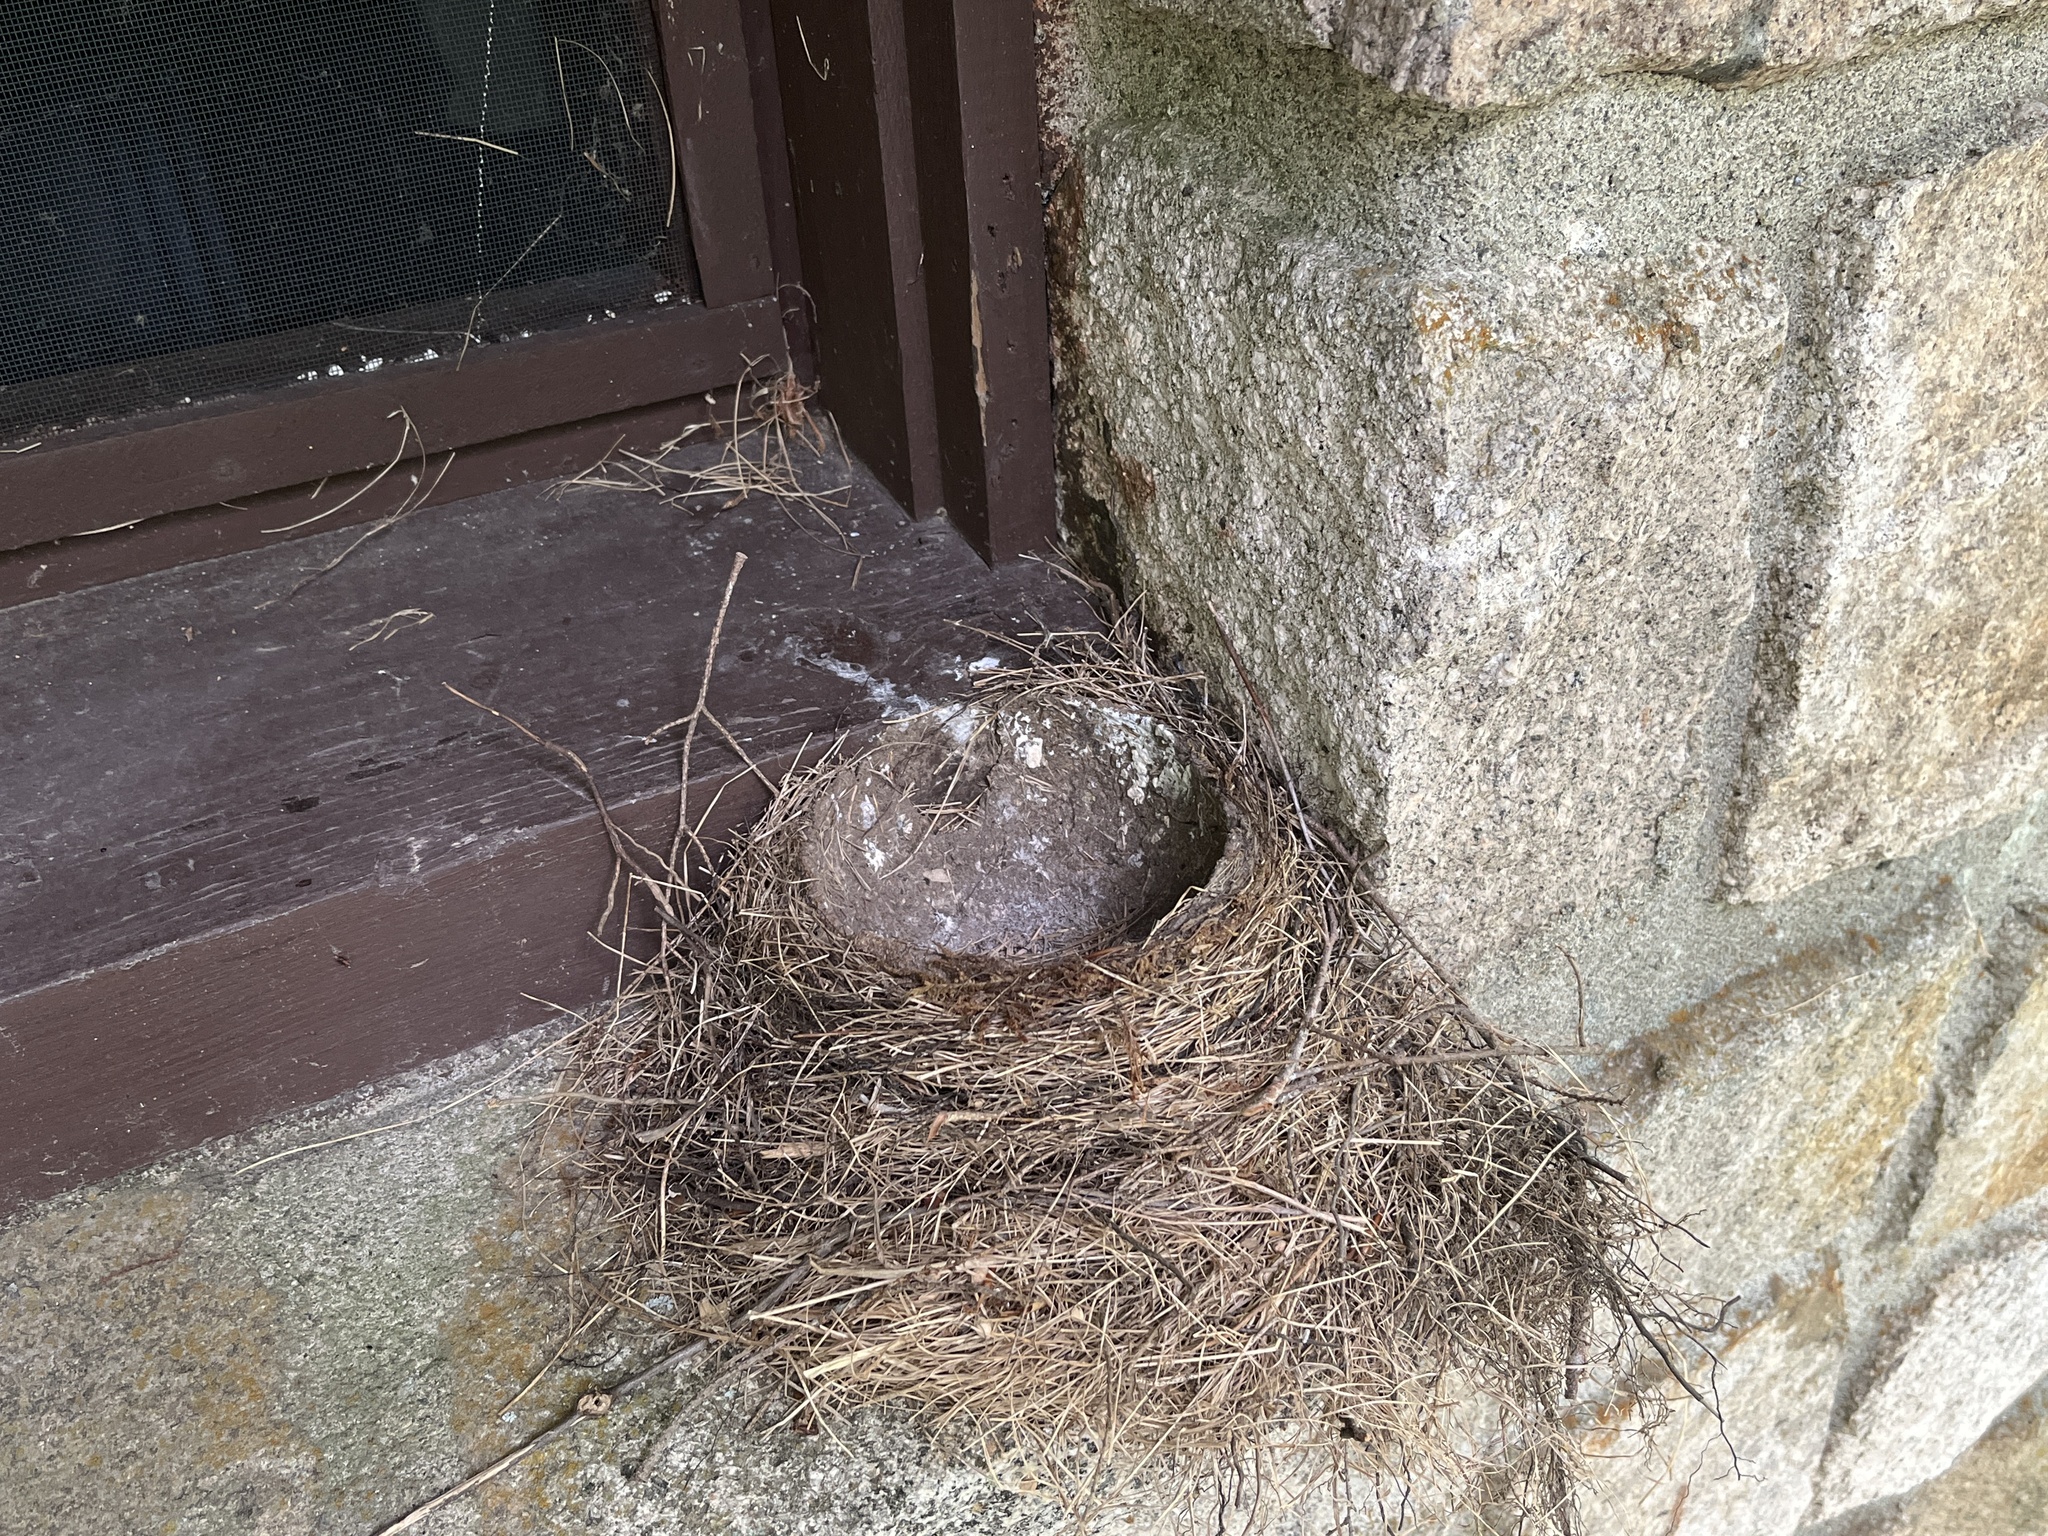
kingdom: Animalia
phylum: Chordata
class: Aves
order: Passeriformes
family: Turdidae
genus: Turdus
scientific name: Turdus migratorius
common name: American robin
